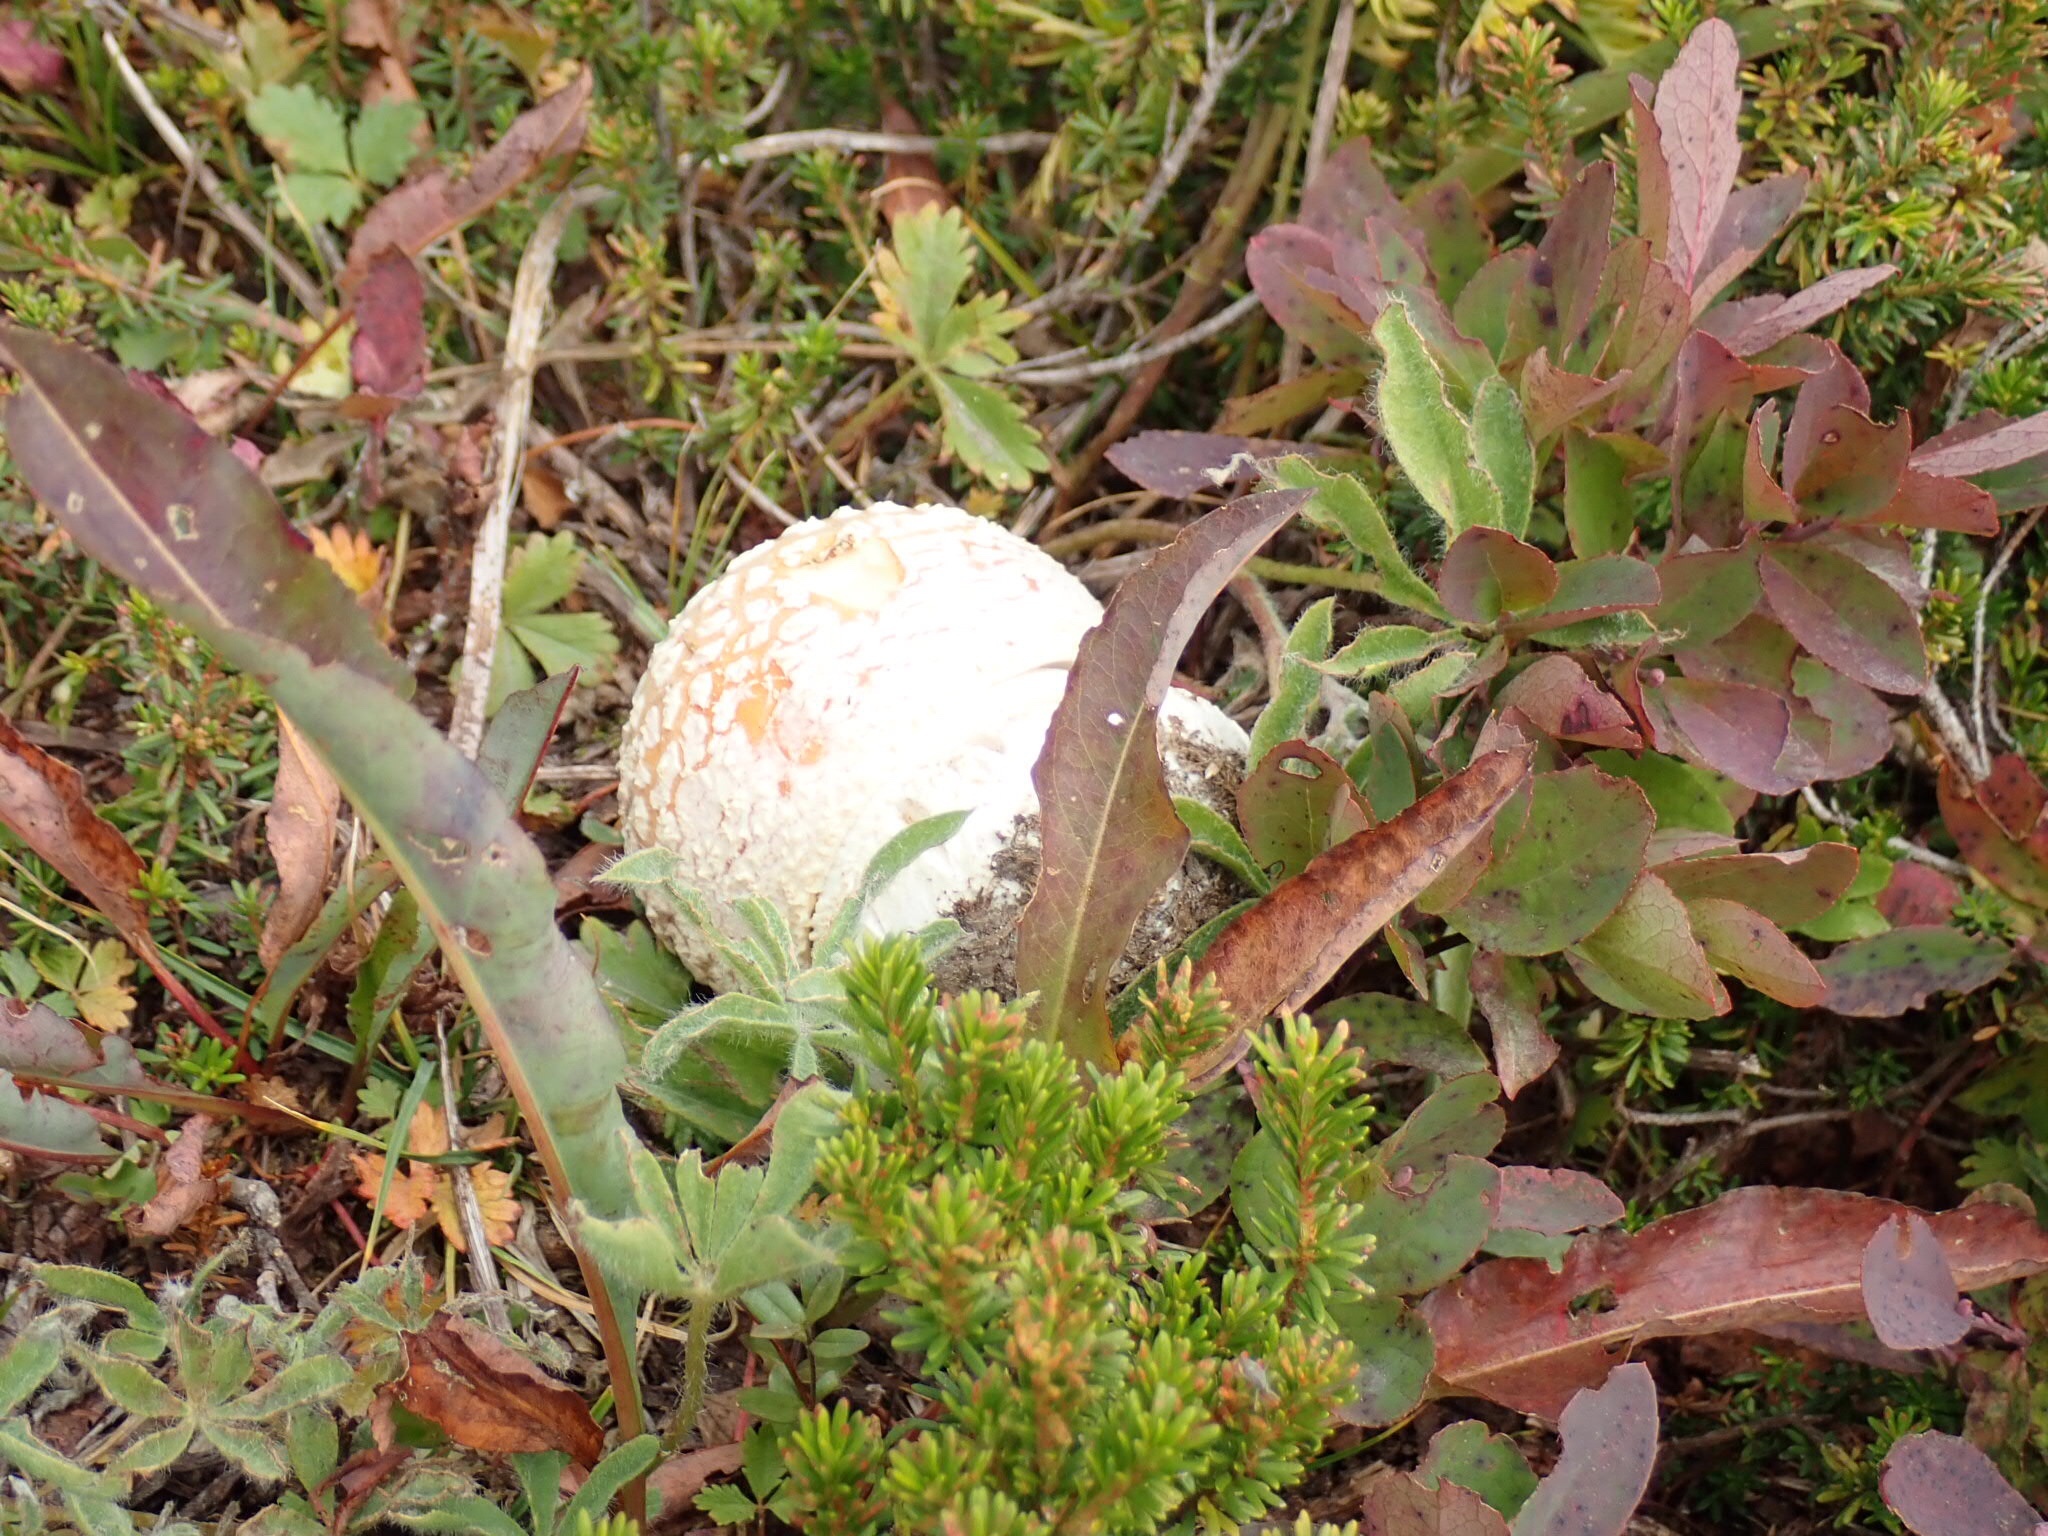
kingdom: Fungi
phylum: Basidiomycota
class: Agaricomycetes
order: Agaricales
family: Amanitaceae
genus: Amanita
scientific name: Amanita muscaria
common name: Fly agaric
